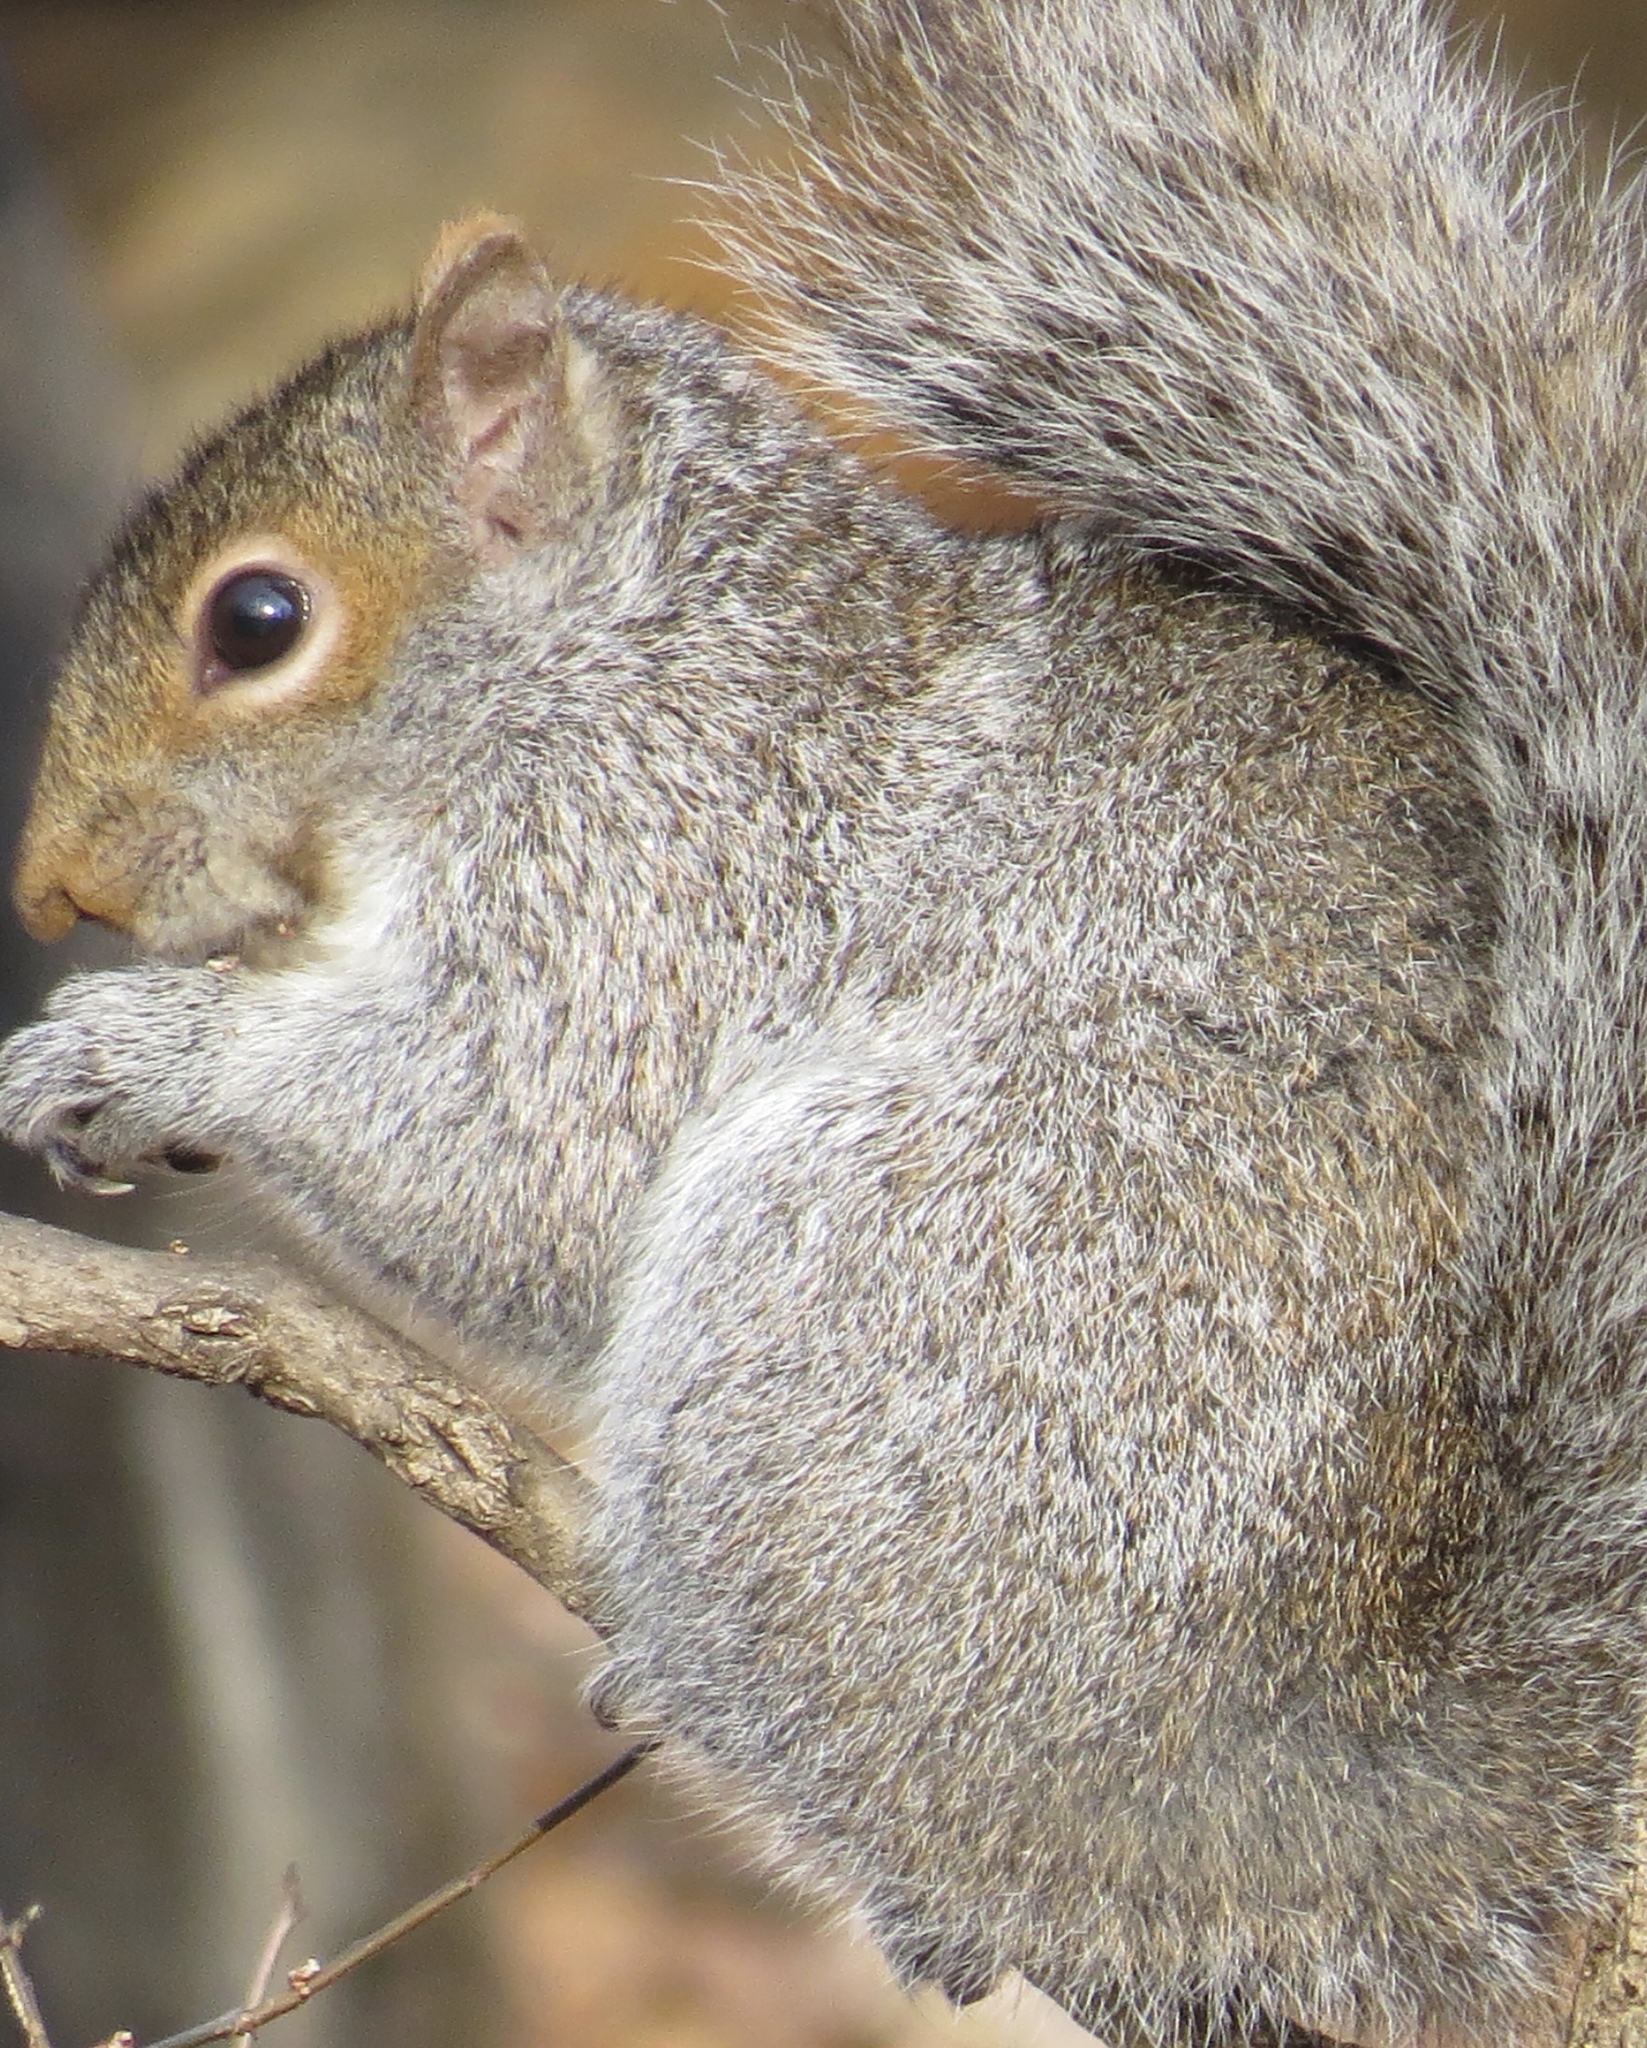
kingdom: Animalia
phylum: Chordata
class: Mammalia
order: Rodentia
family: Sciuridae
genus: Sciurus
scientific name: Sciurus carolinensis
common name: Eastern gray squirrel
